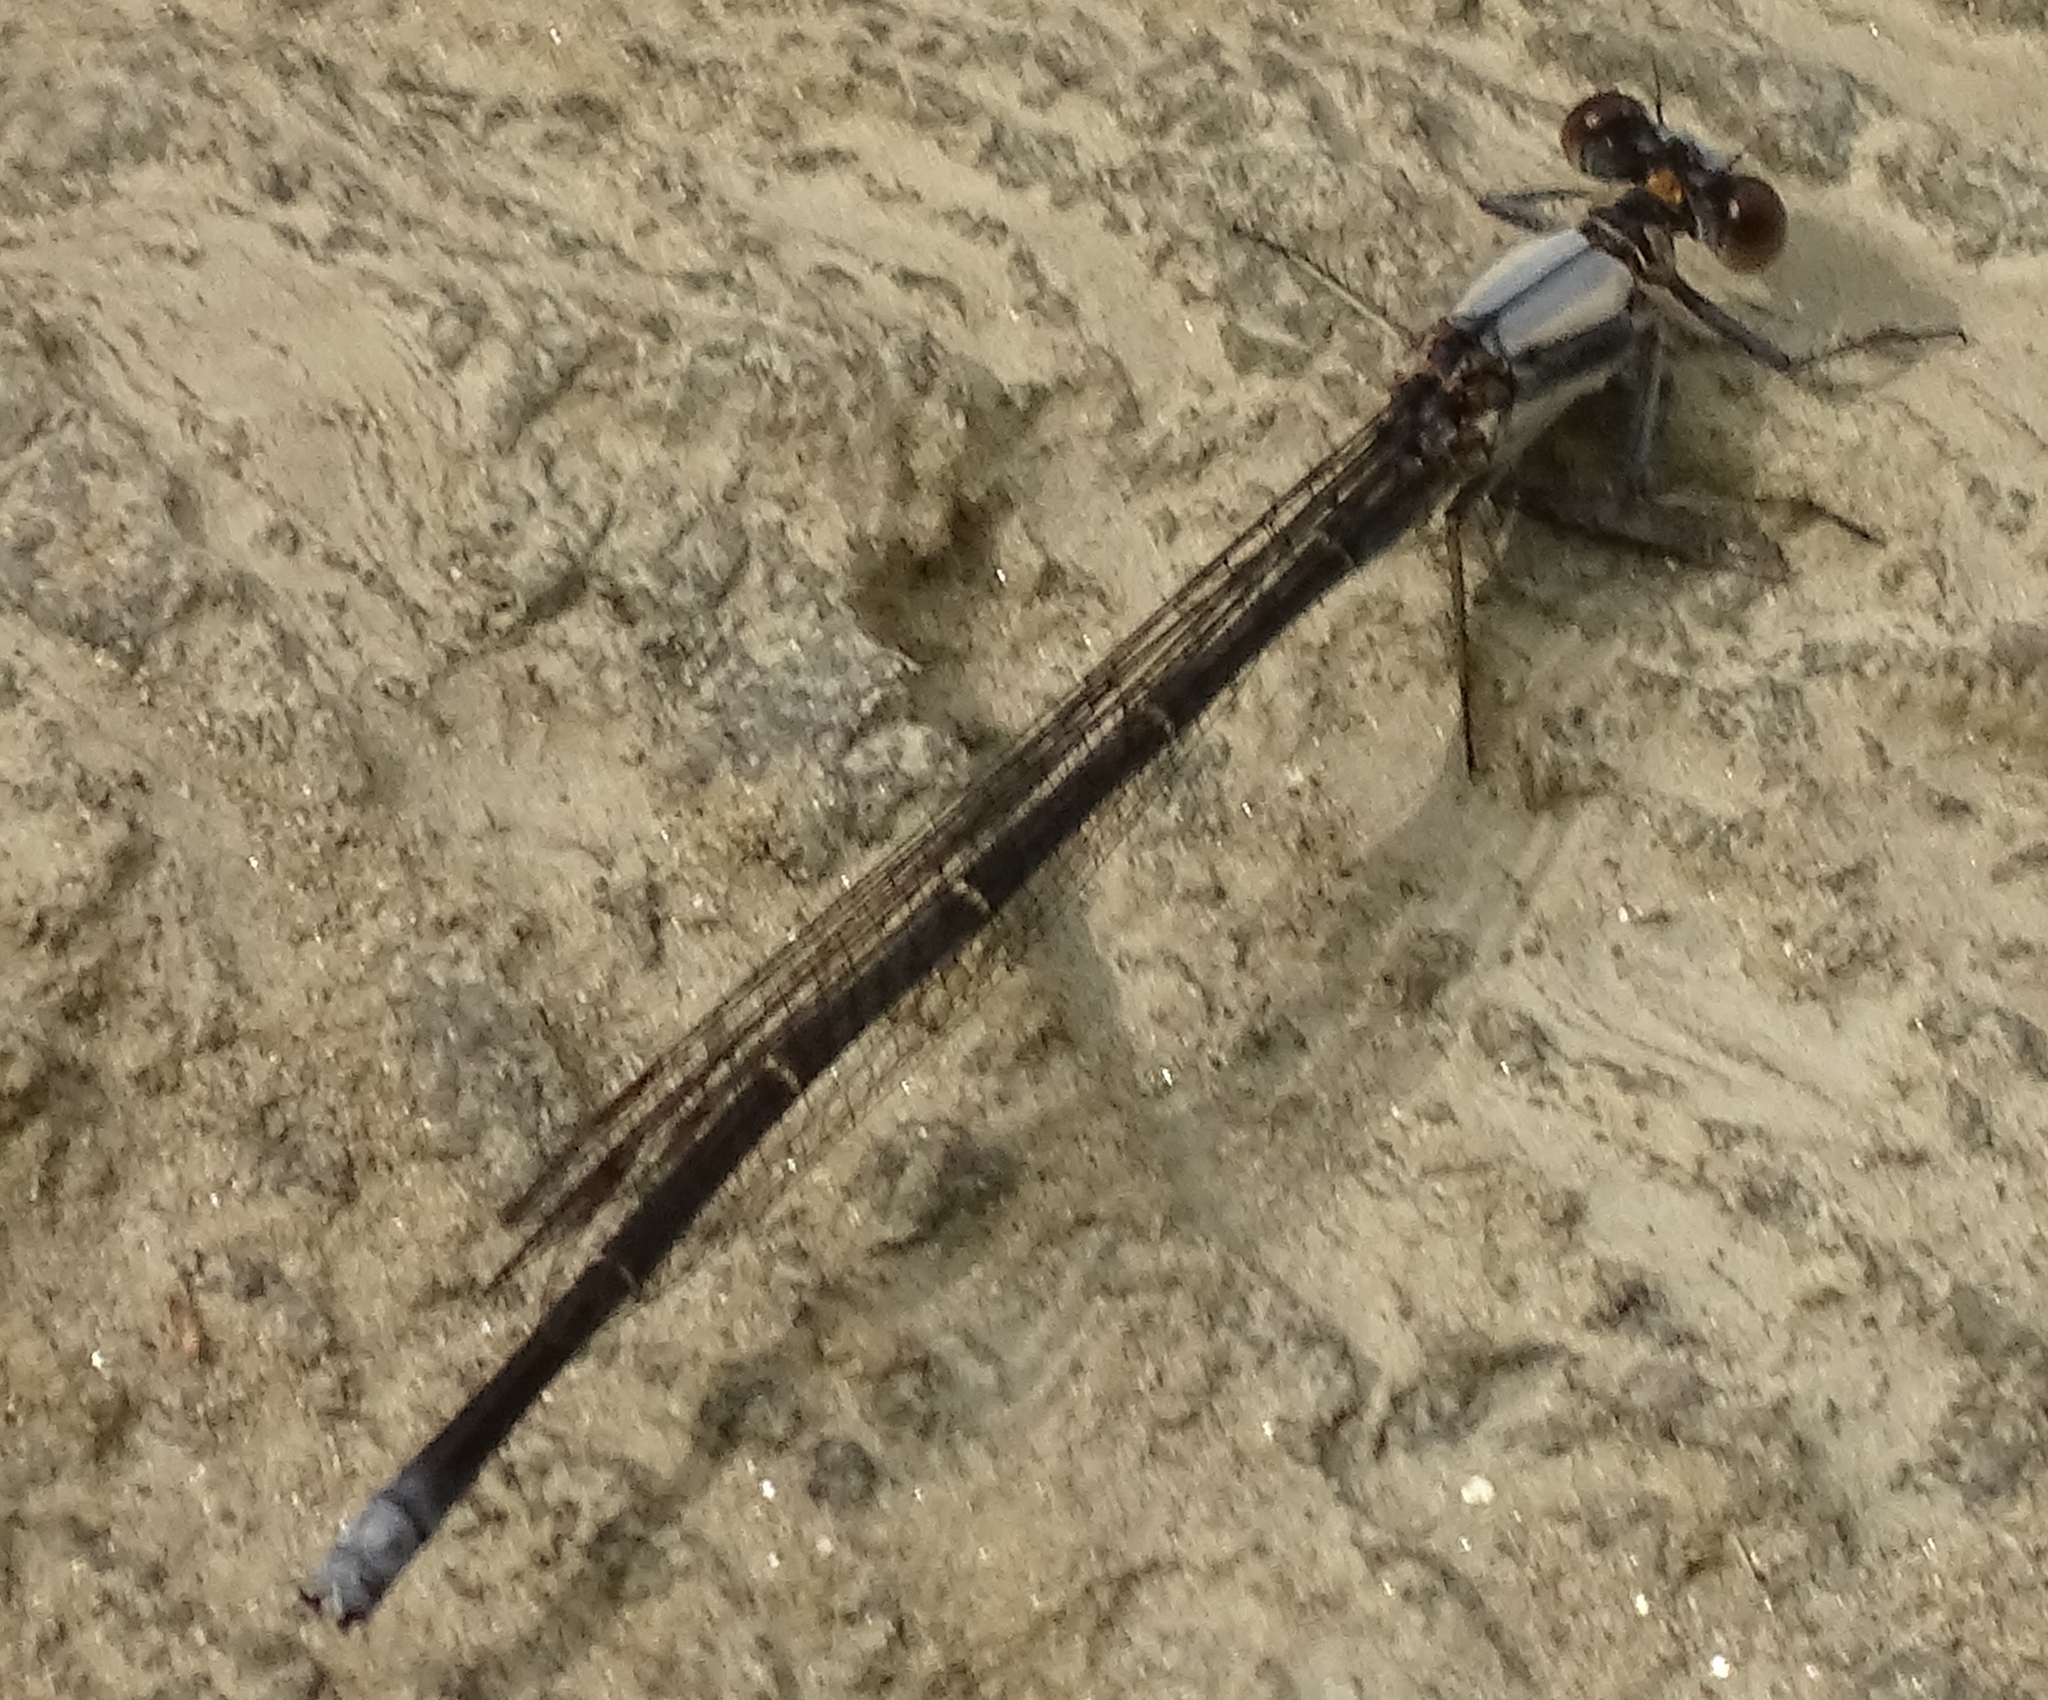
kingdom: Animalia
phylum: Arthropoda
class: Insecta
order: Odonata
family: Coenagrionidae
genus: Argia
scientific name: Argia moesta
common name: Powdered dancer
